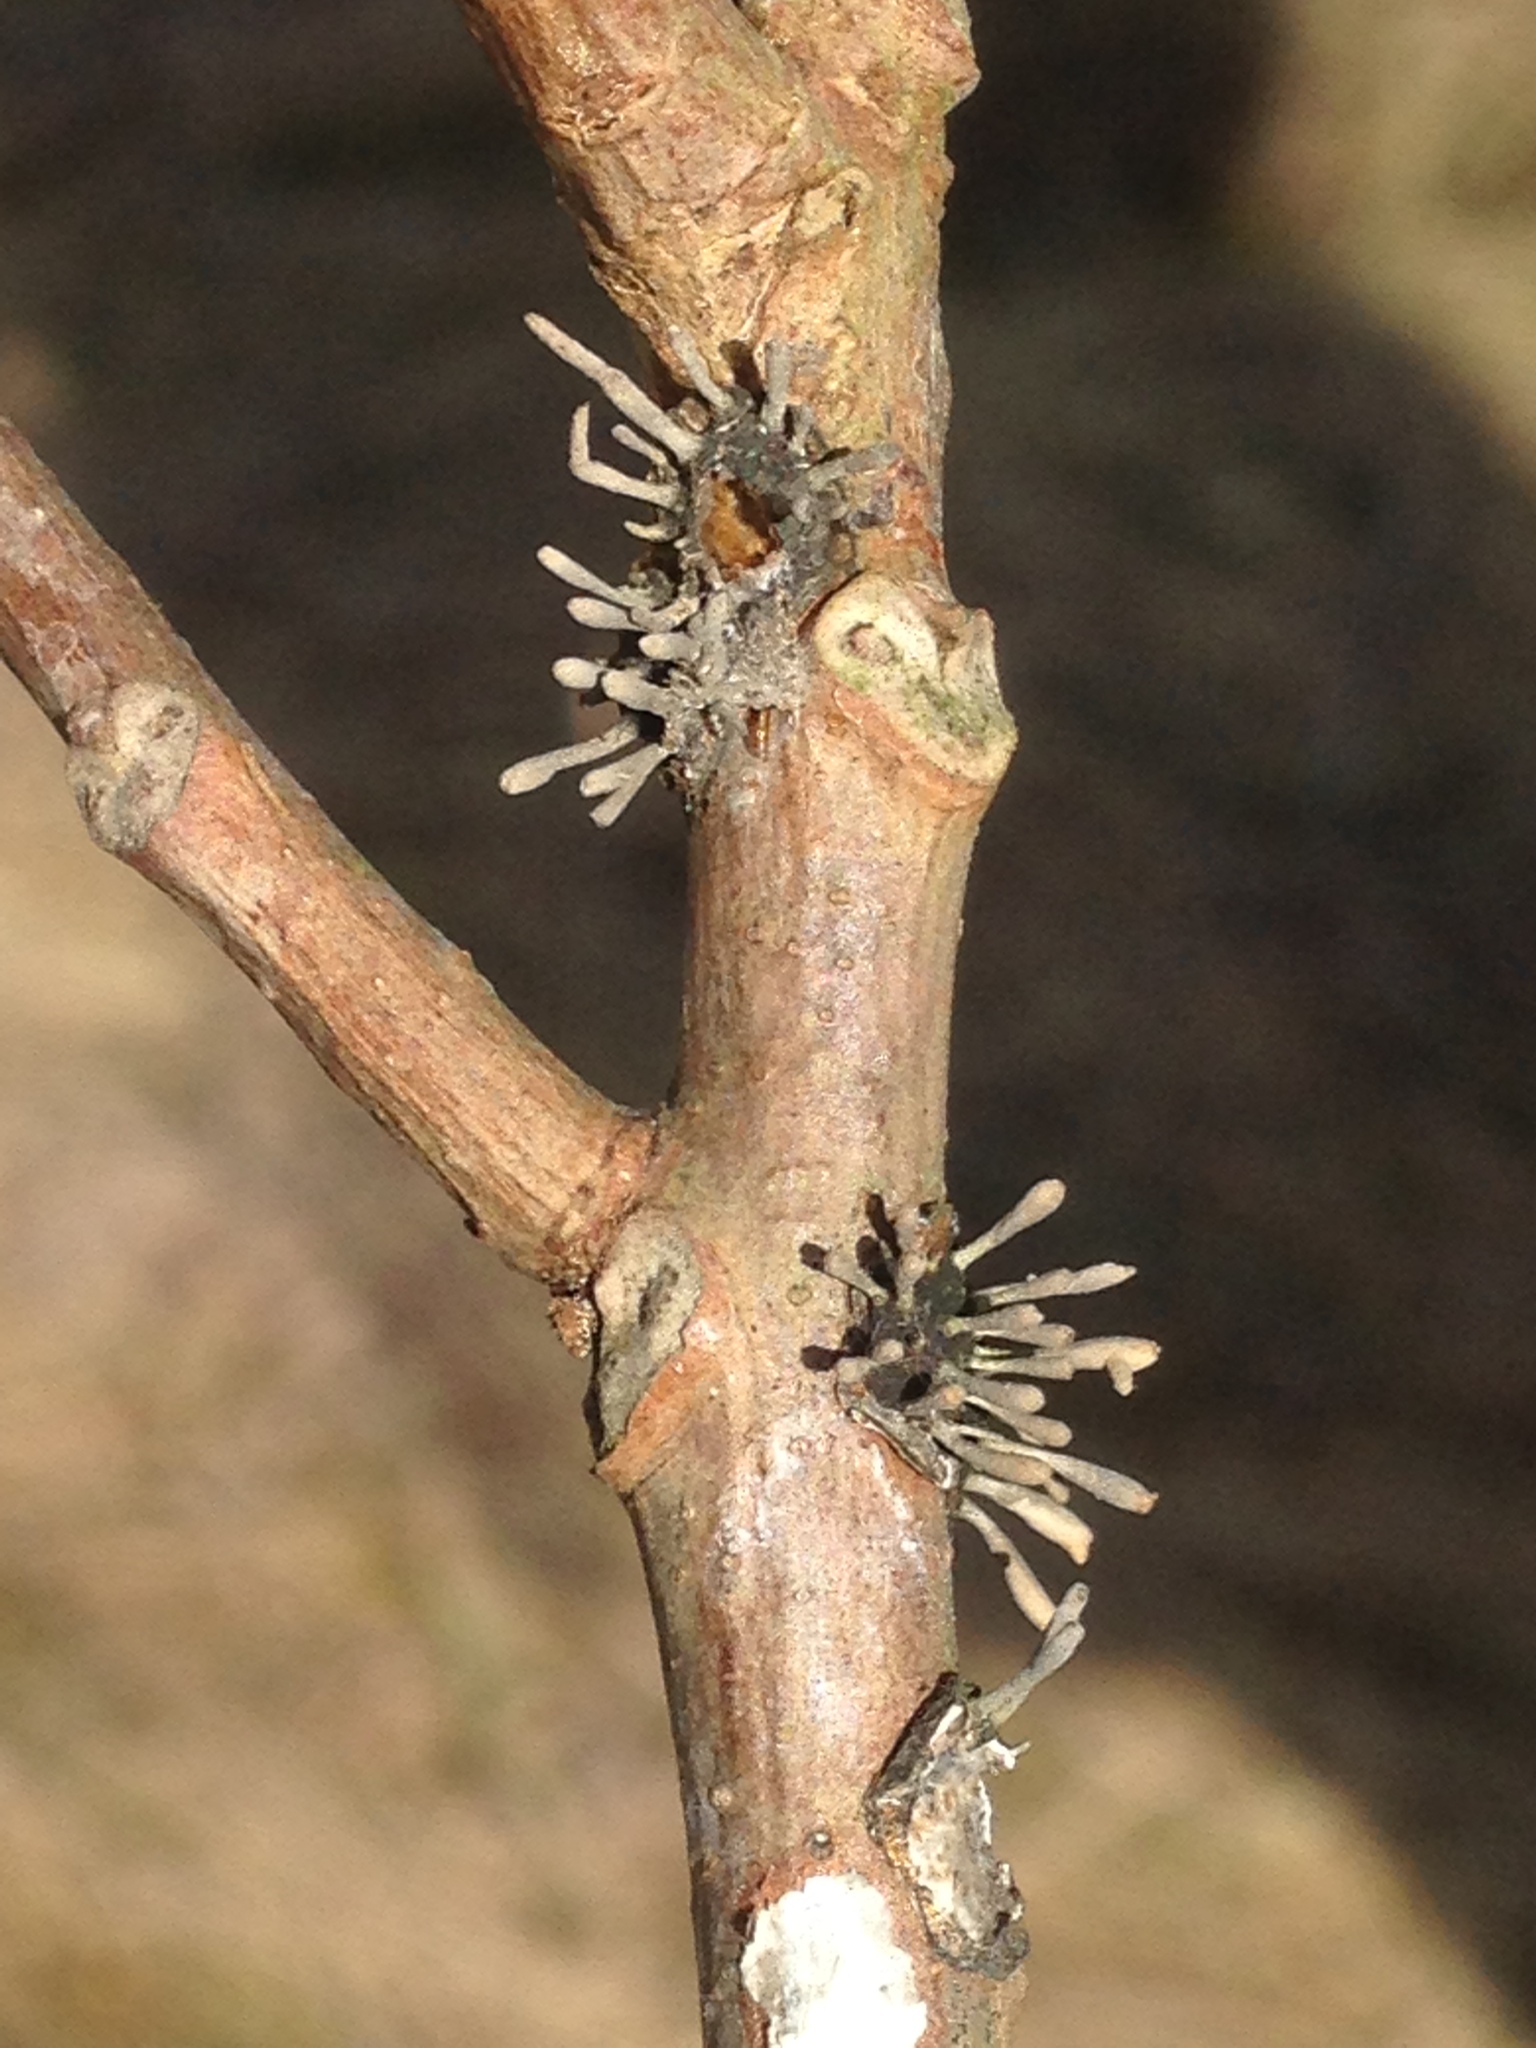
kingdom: Fungi
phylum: Ascomycota
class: Sordariomycetes
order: Hypocreales
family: Ophiocordycipitaceae
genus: Ophiocordyceps
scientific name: Ophiocordyceps clavulata
